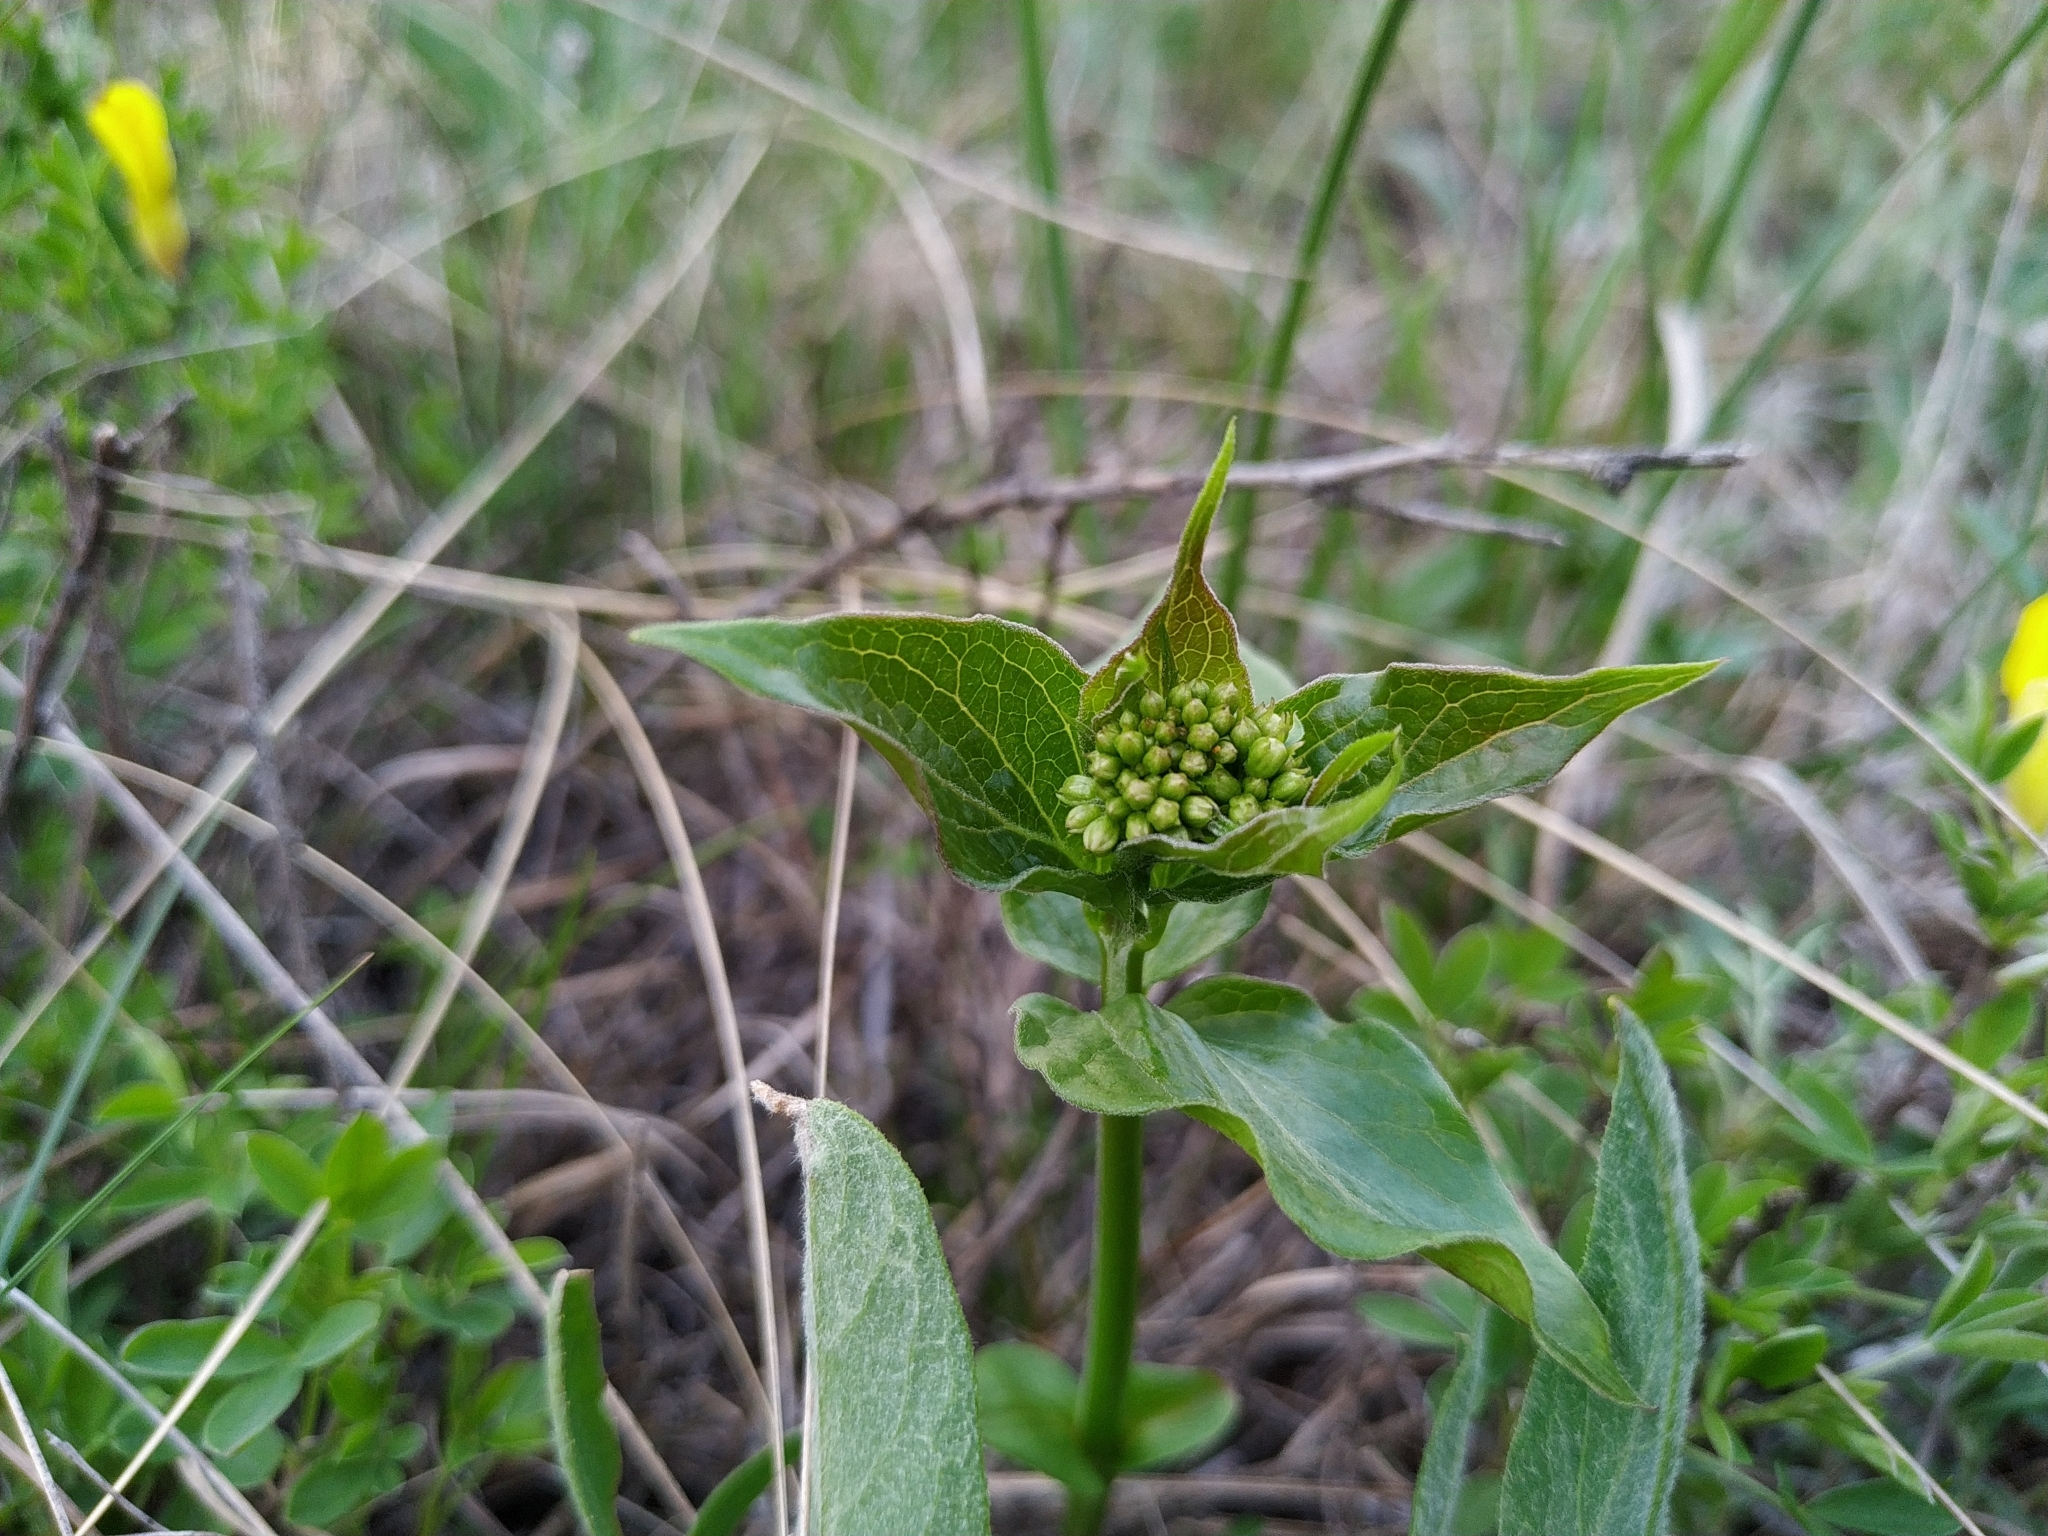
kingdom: Plantae
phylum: Tracheophyta
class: Magnoliopsida
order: Gentianales
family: Apocynaceae
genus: Vincetoxicum
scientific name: Vincetoxicum hirundinaria
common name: White swallowwort
